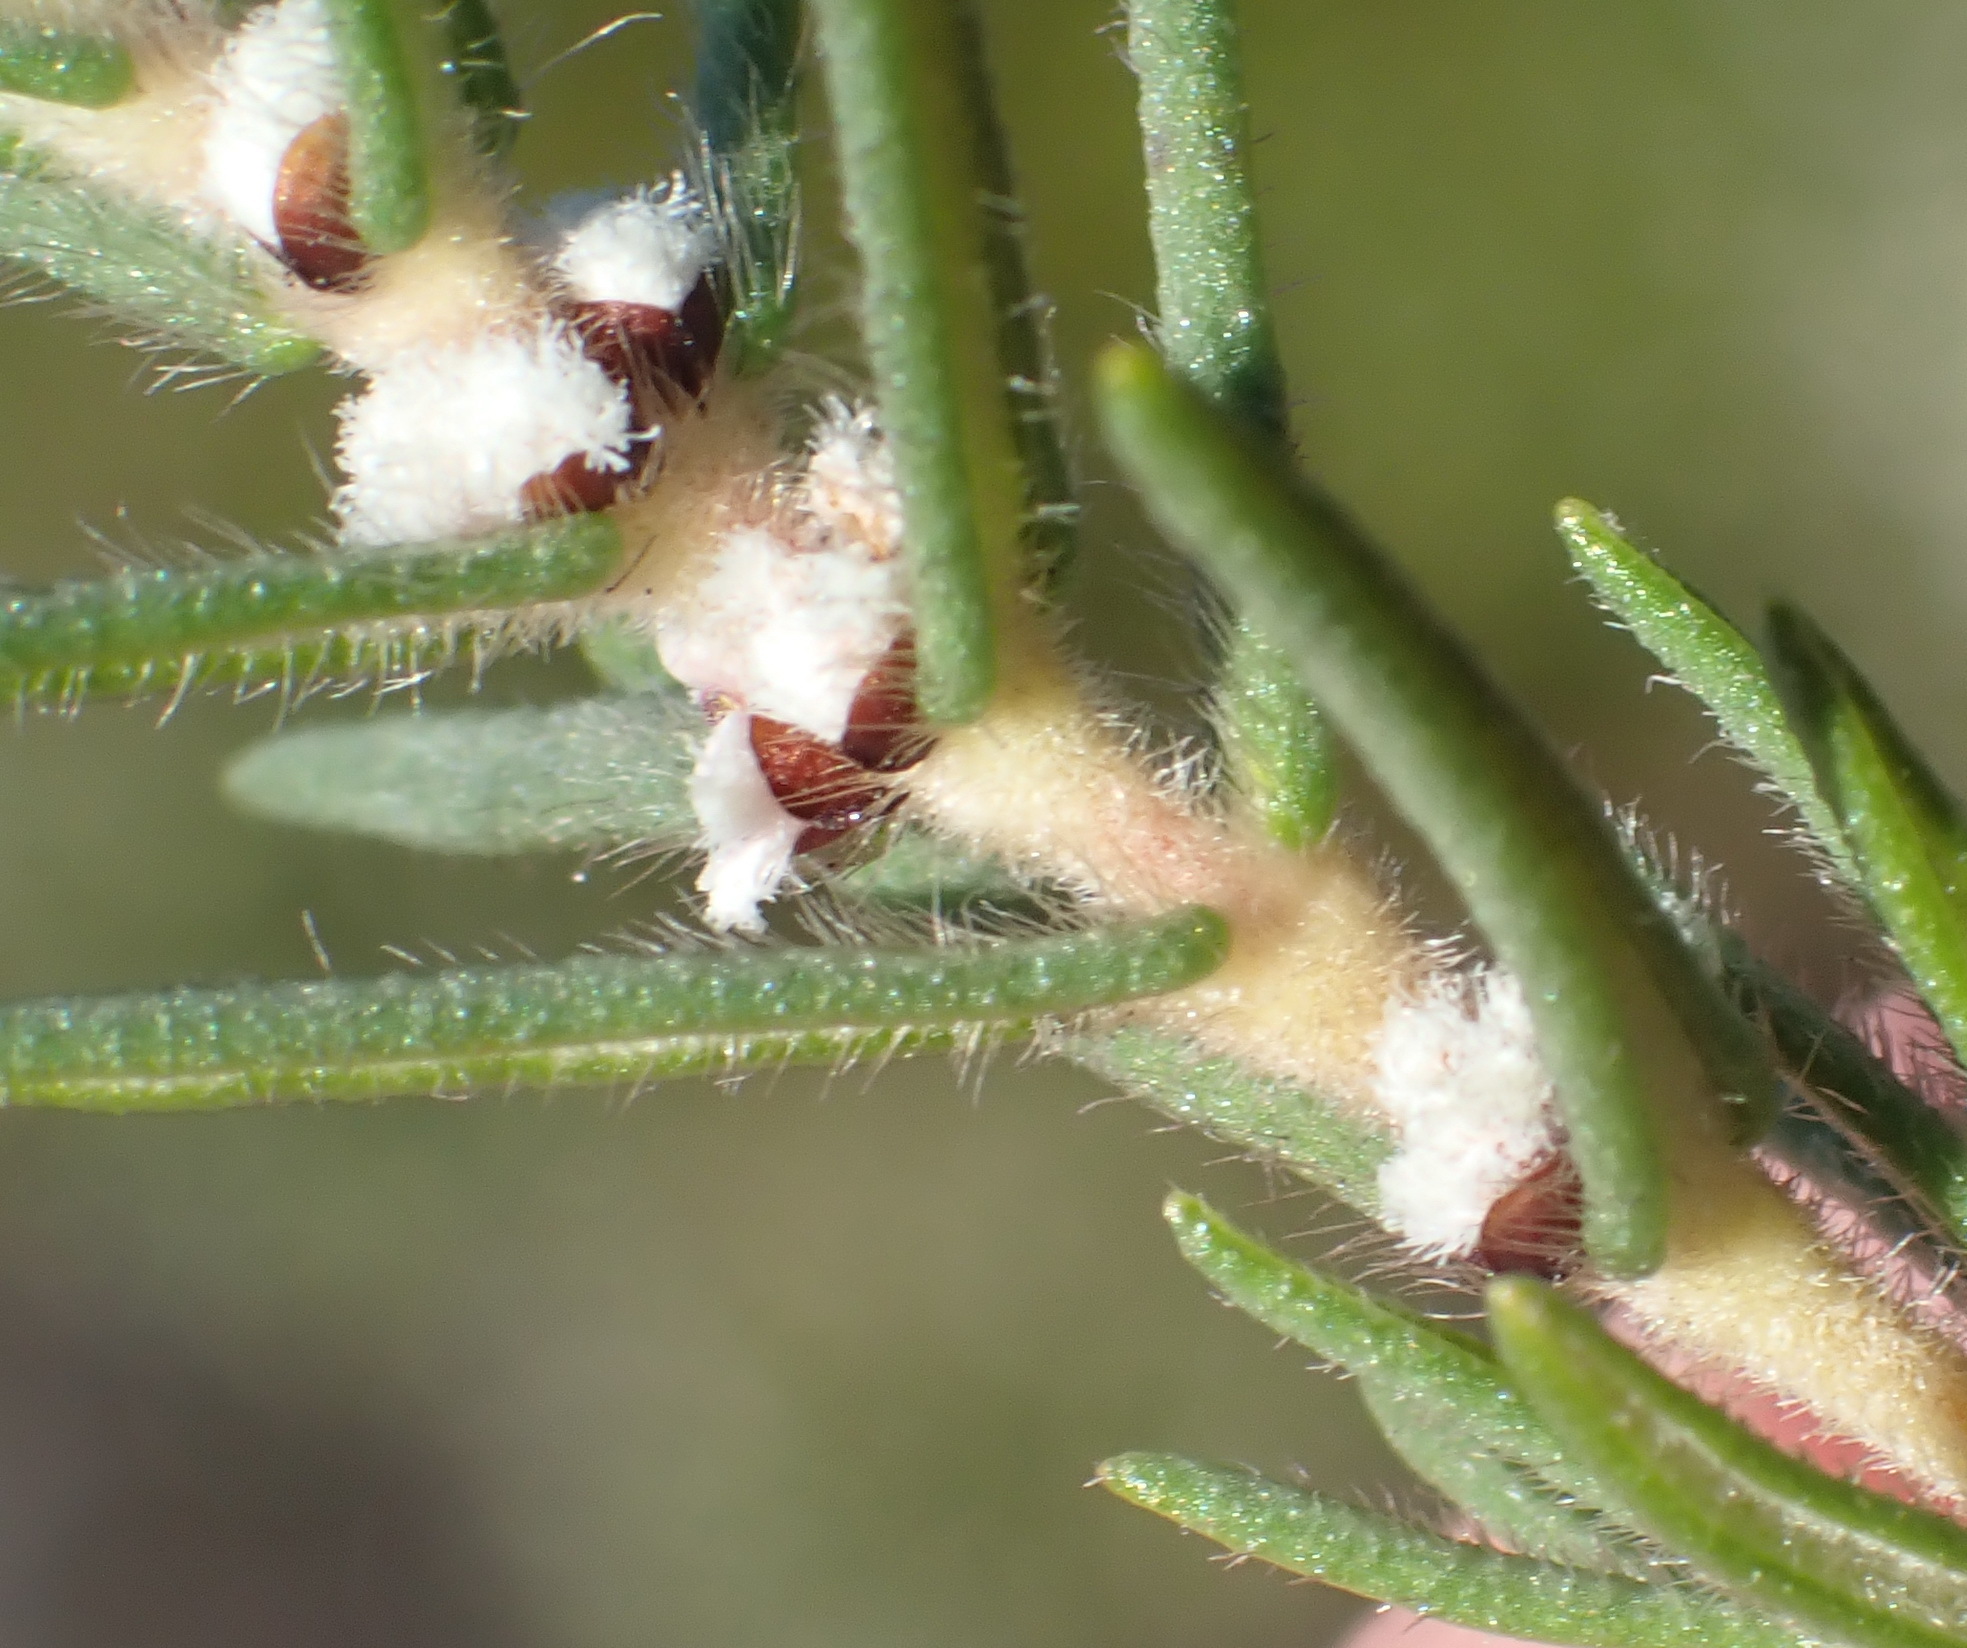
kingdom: Plantae
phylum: Tracheophyta
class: Magnoliopsida
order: Cornales
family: Grubbiaceae
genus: Grubbia
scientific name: Grubbia rosmarinifolia
